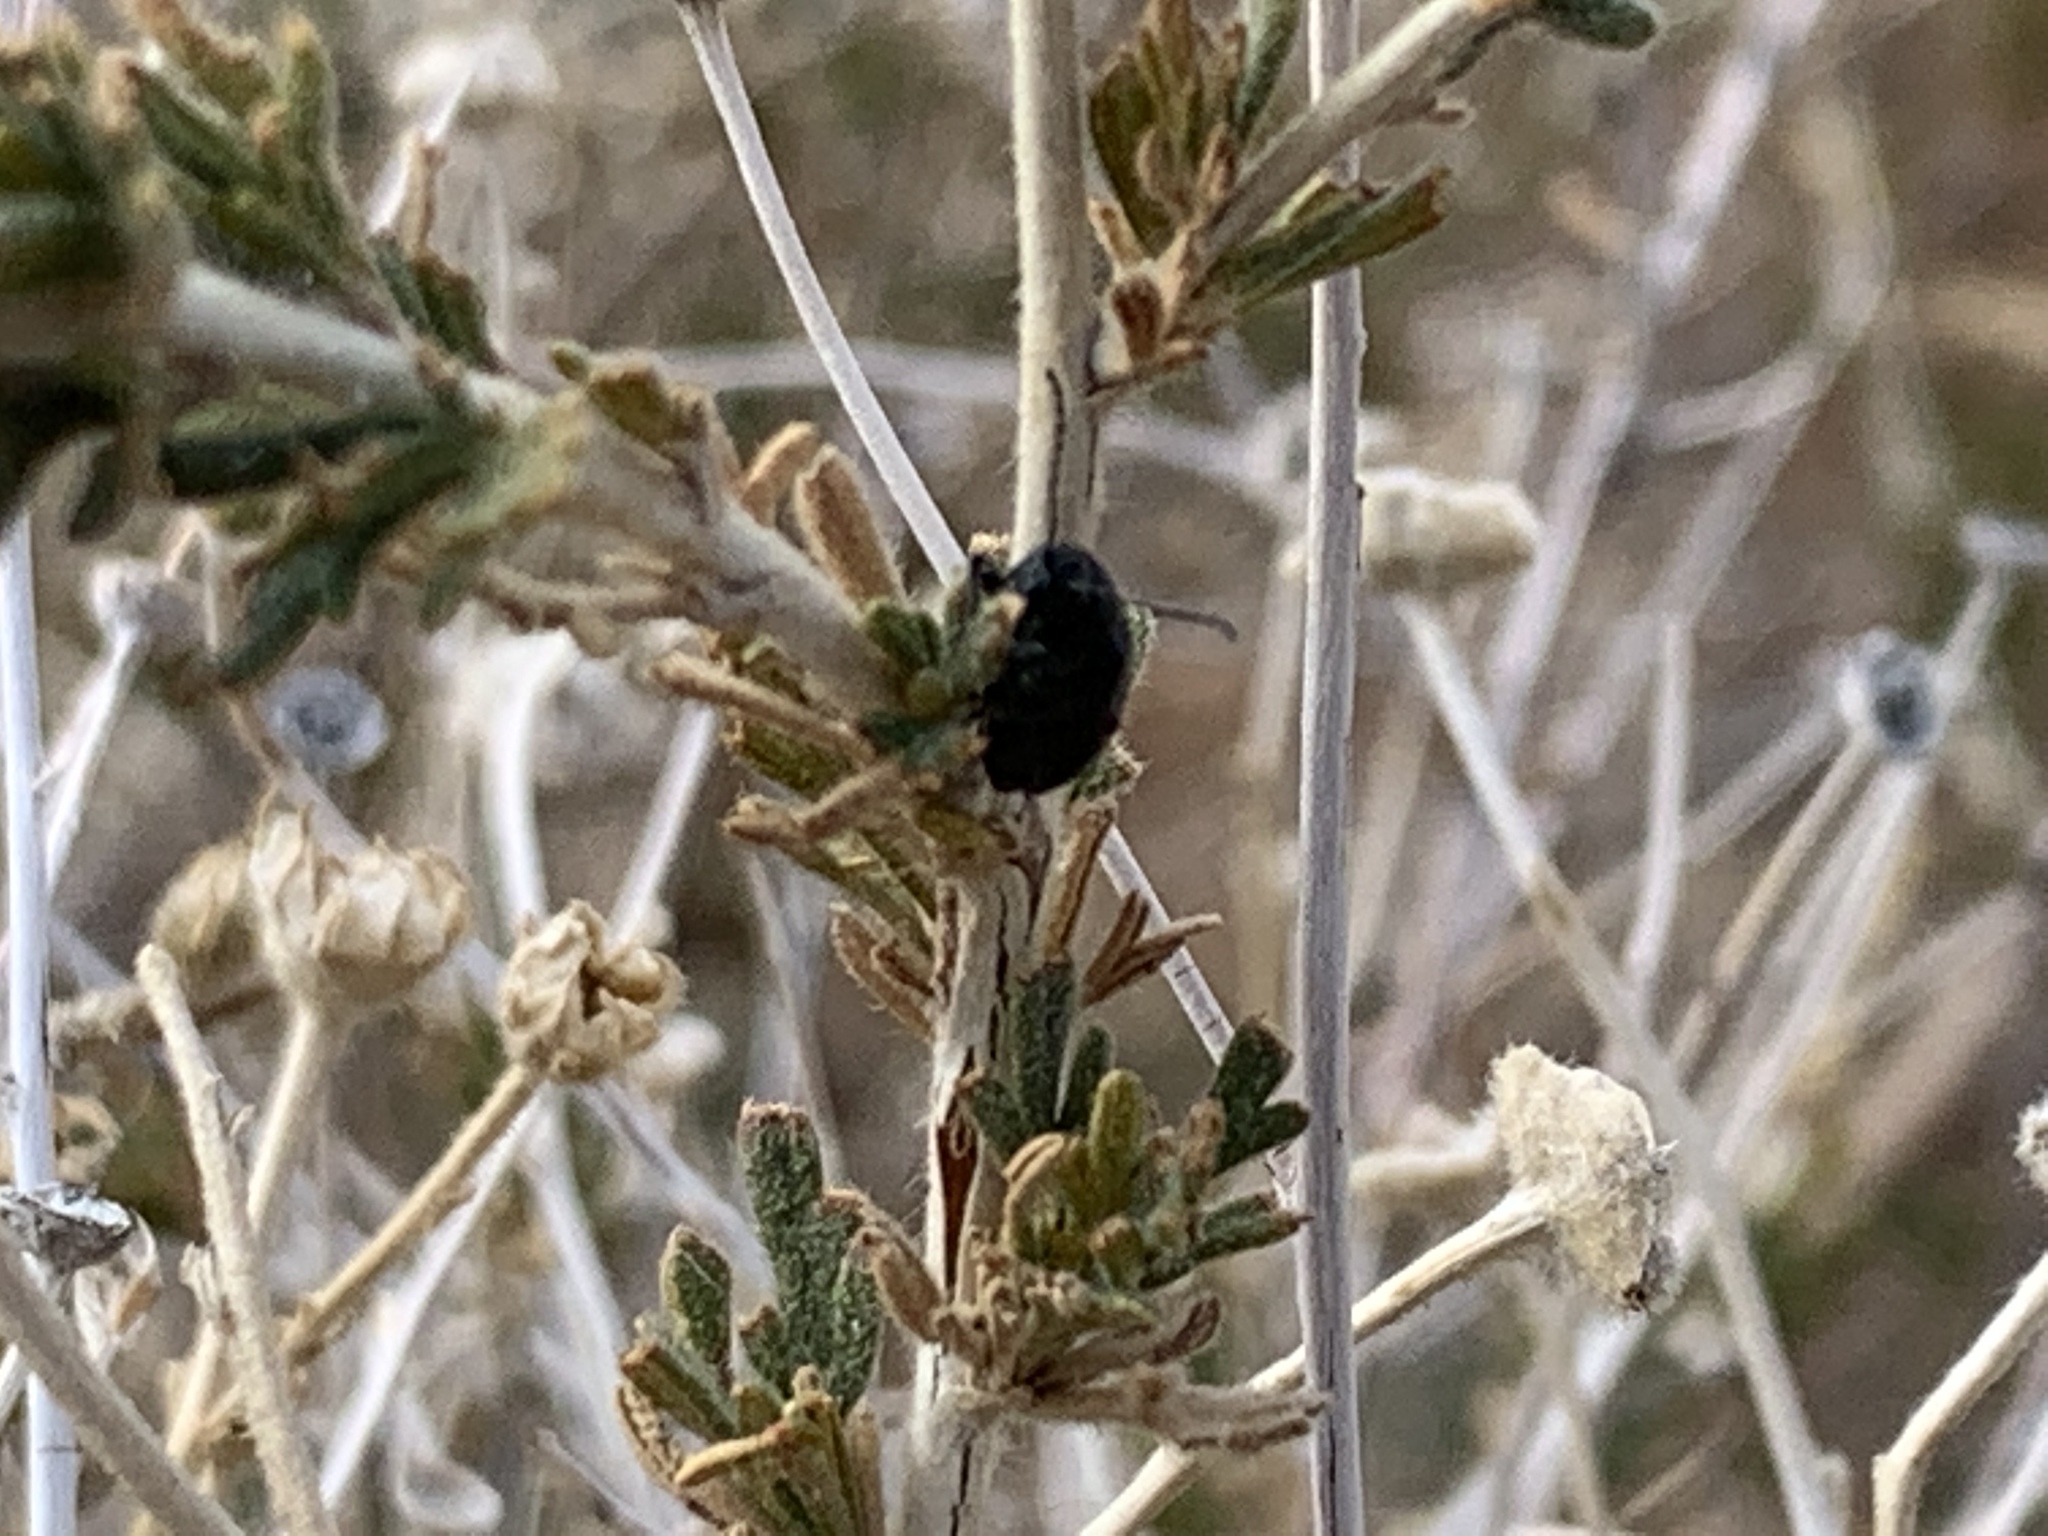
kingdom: Animalia
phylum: Arthropoda
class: Insecta
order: Coleoptera
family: Chrysomelidae
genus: Altica
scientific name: Altica obliterata
